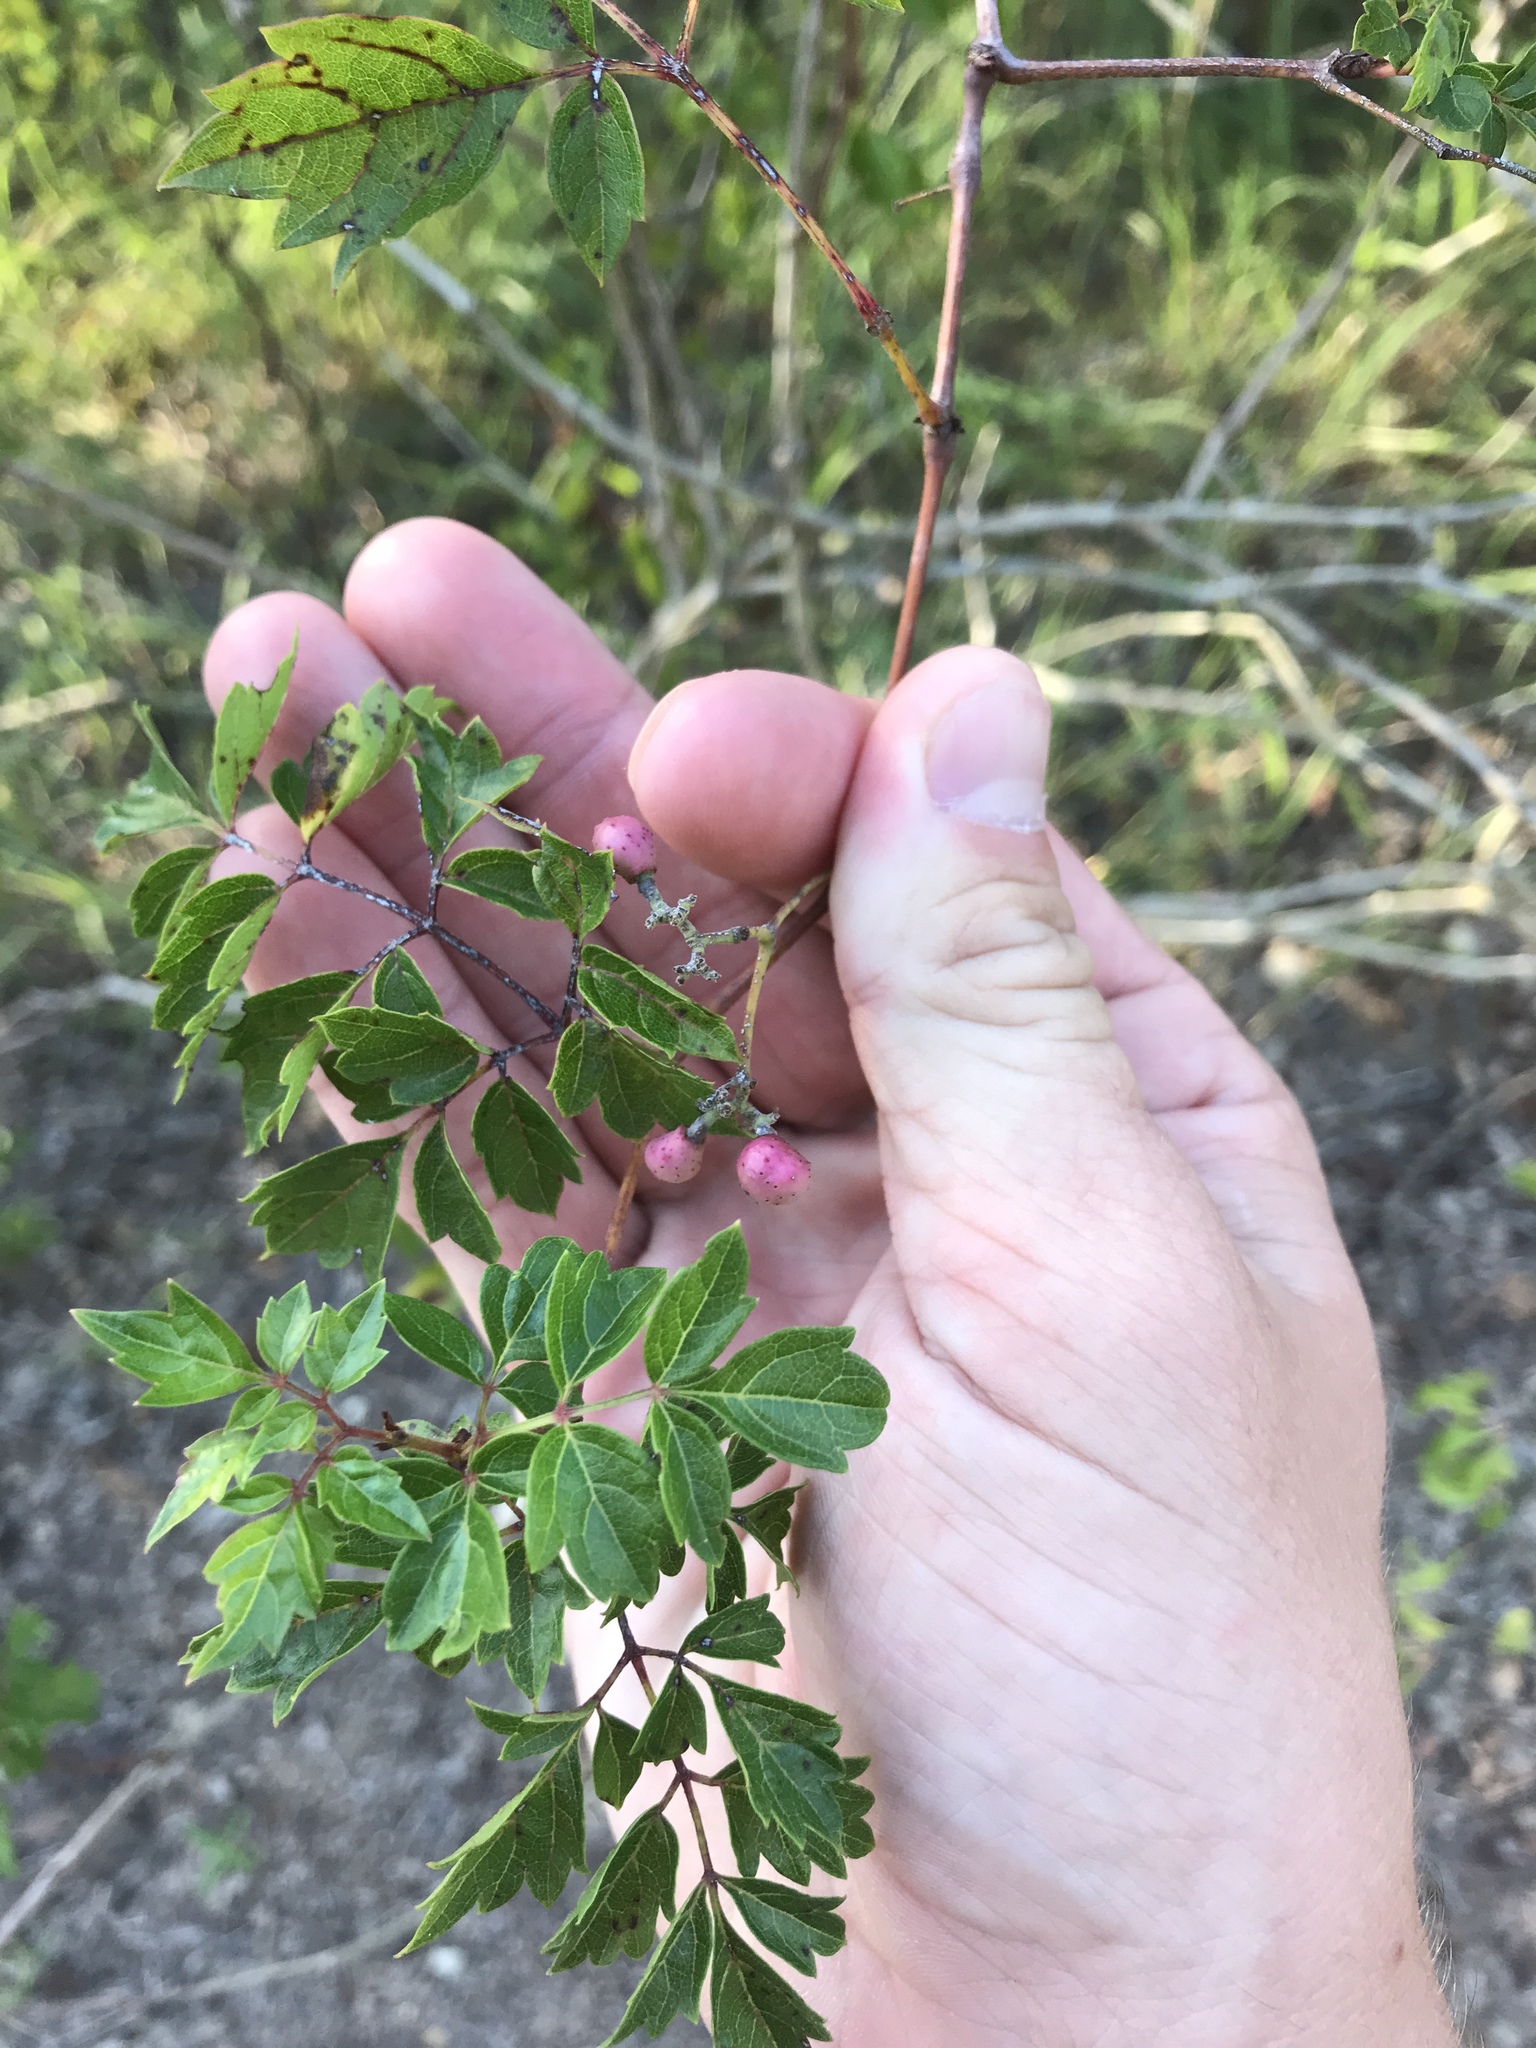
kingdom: Plantae
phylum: Tracheophyta
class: Magnoliopsida
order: Vitales
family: Vitaceae
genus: Nekemias
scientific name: Nekemias arborea
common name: Peppervine
